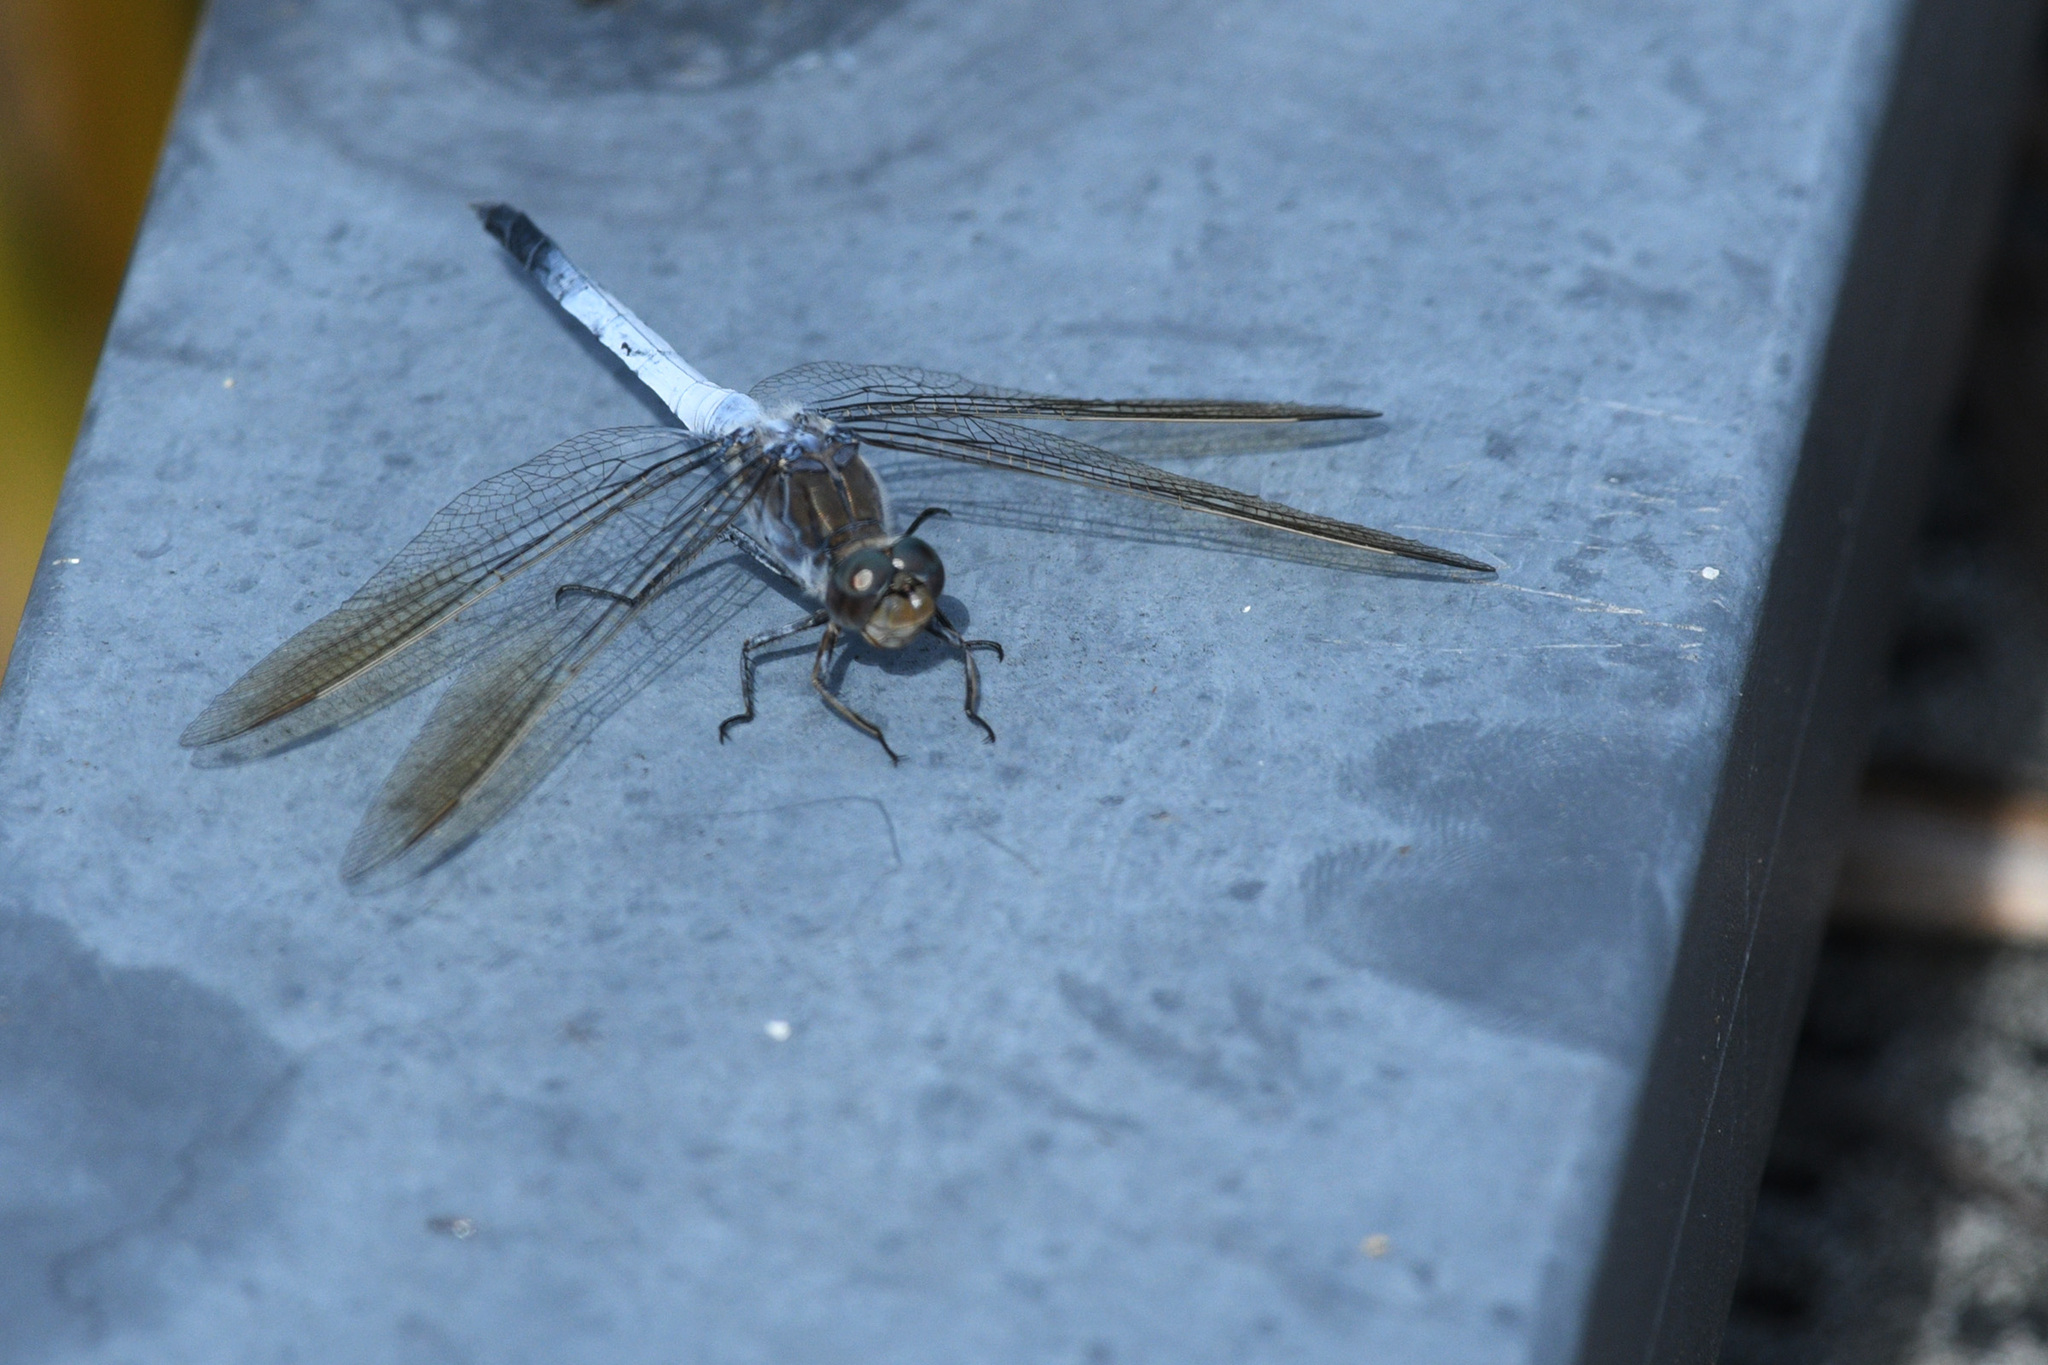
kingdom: Animalia
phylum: Arthropoda
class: Insecta
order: Odonata
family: Libellulidae
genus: Orthetrum
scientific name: Orthetrum caledonicum
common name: Blue skimmer
